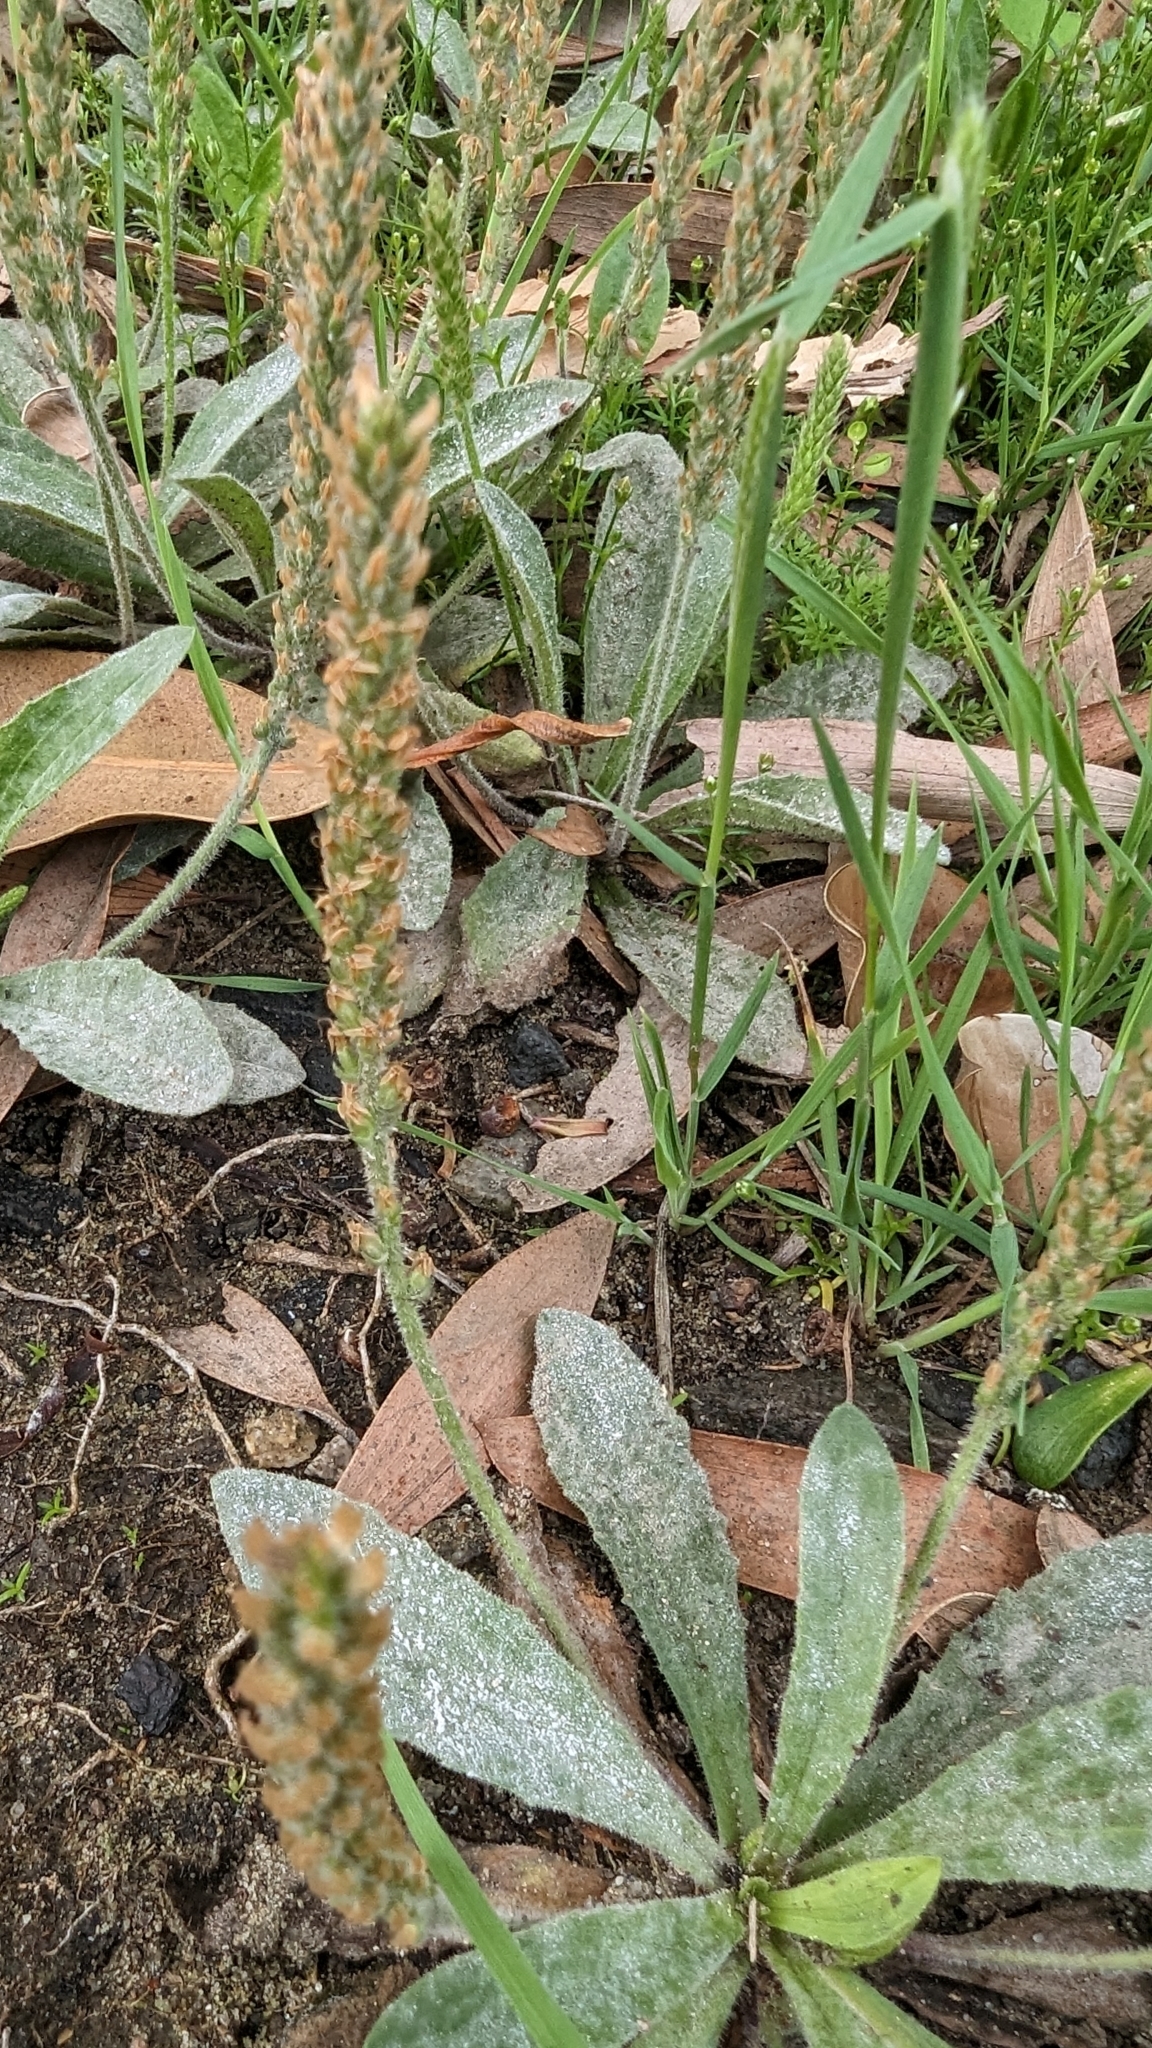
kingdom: Plantae
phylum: Tracheophyta
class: Magnoliopsida
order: Lamiales
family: Plantaginaceae
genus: Plantago
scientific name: Plantago virginica
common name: Hoary plantain
